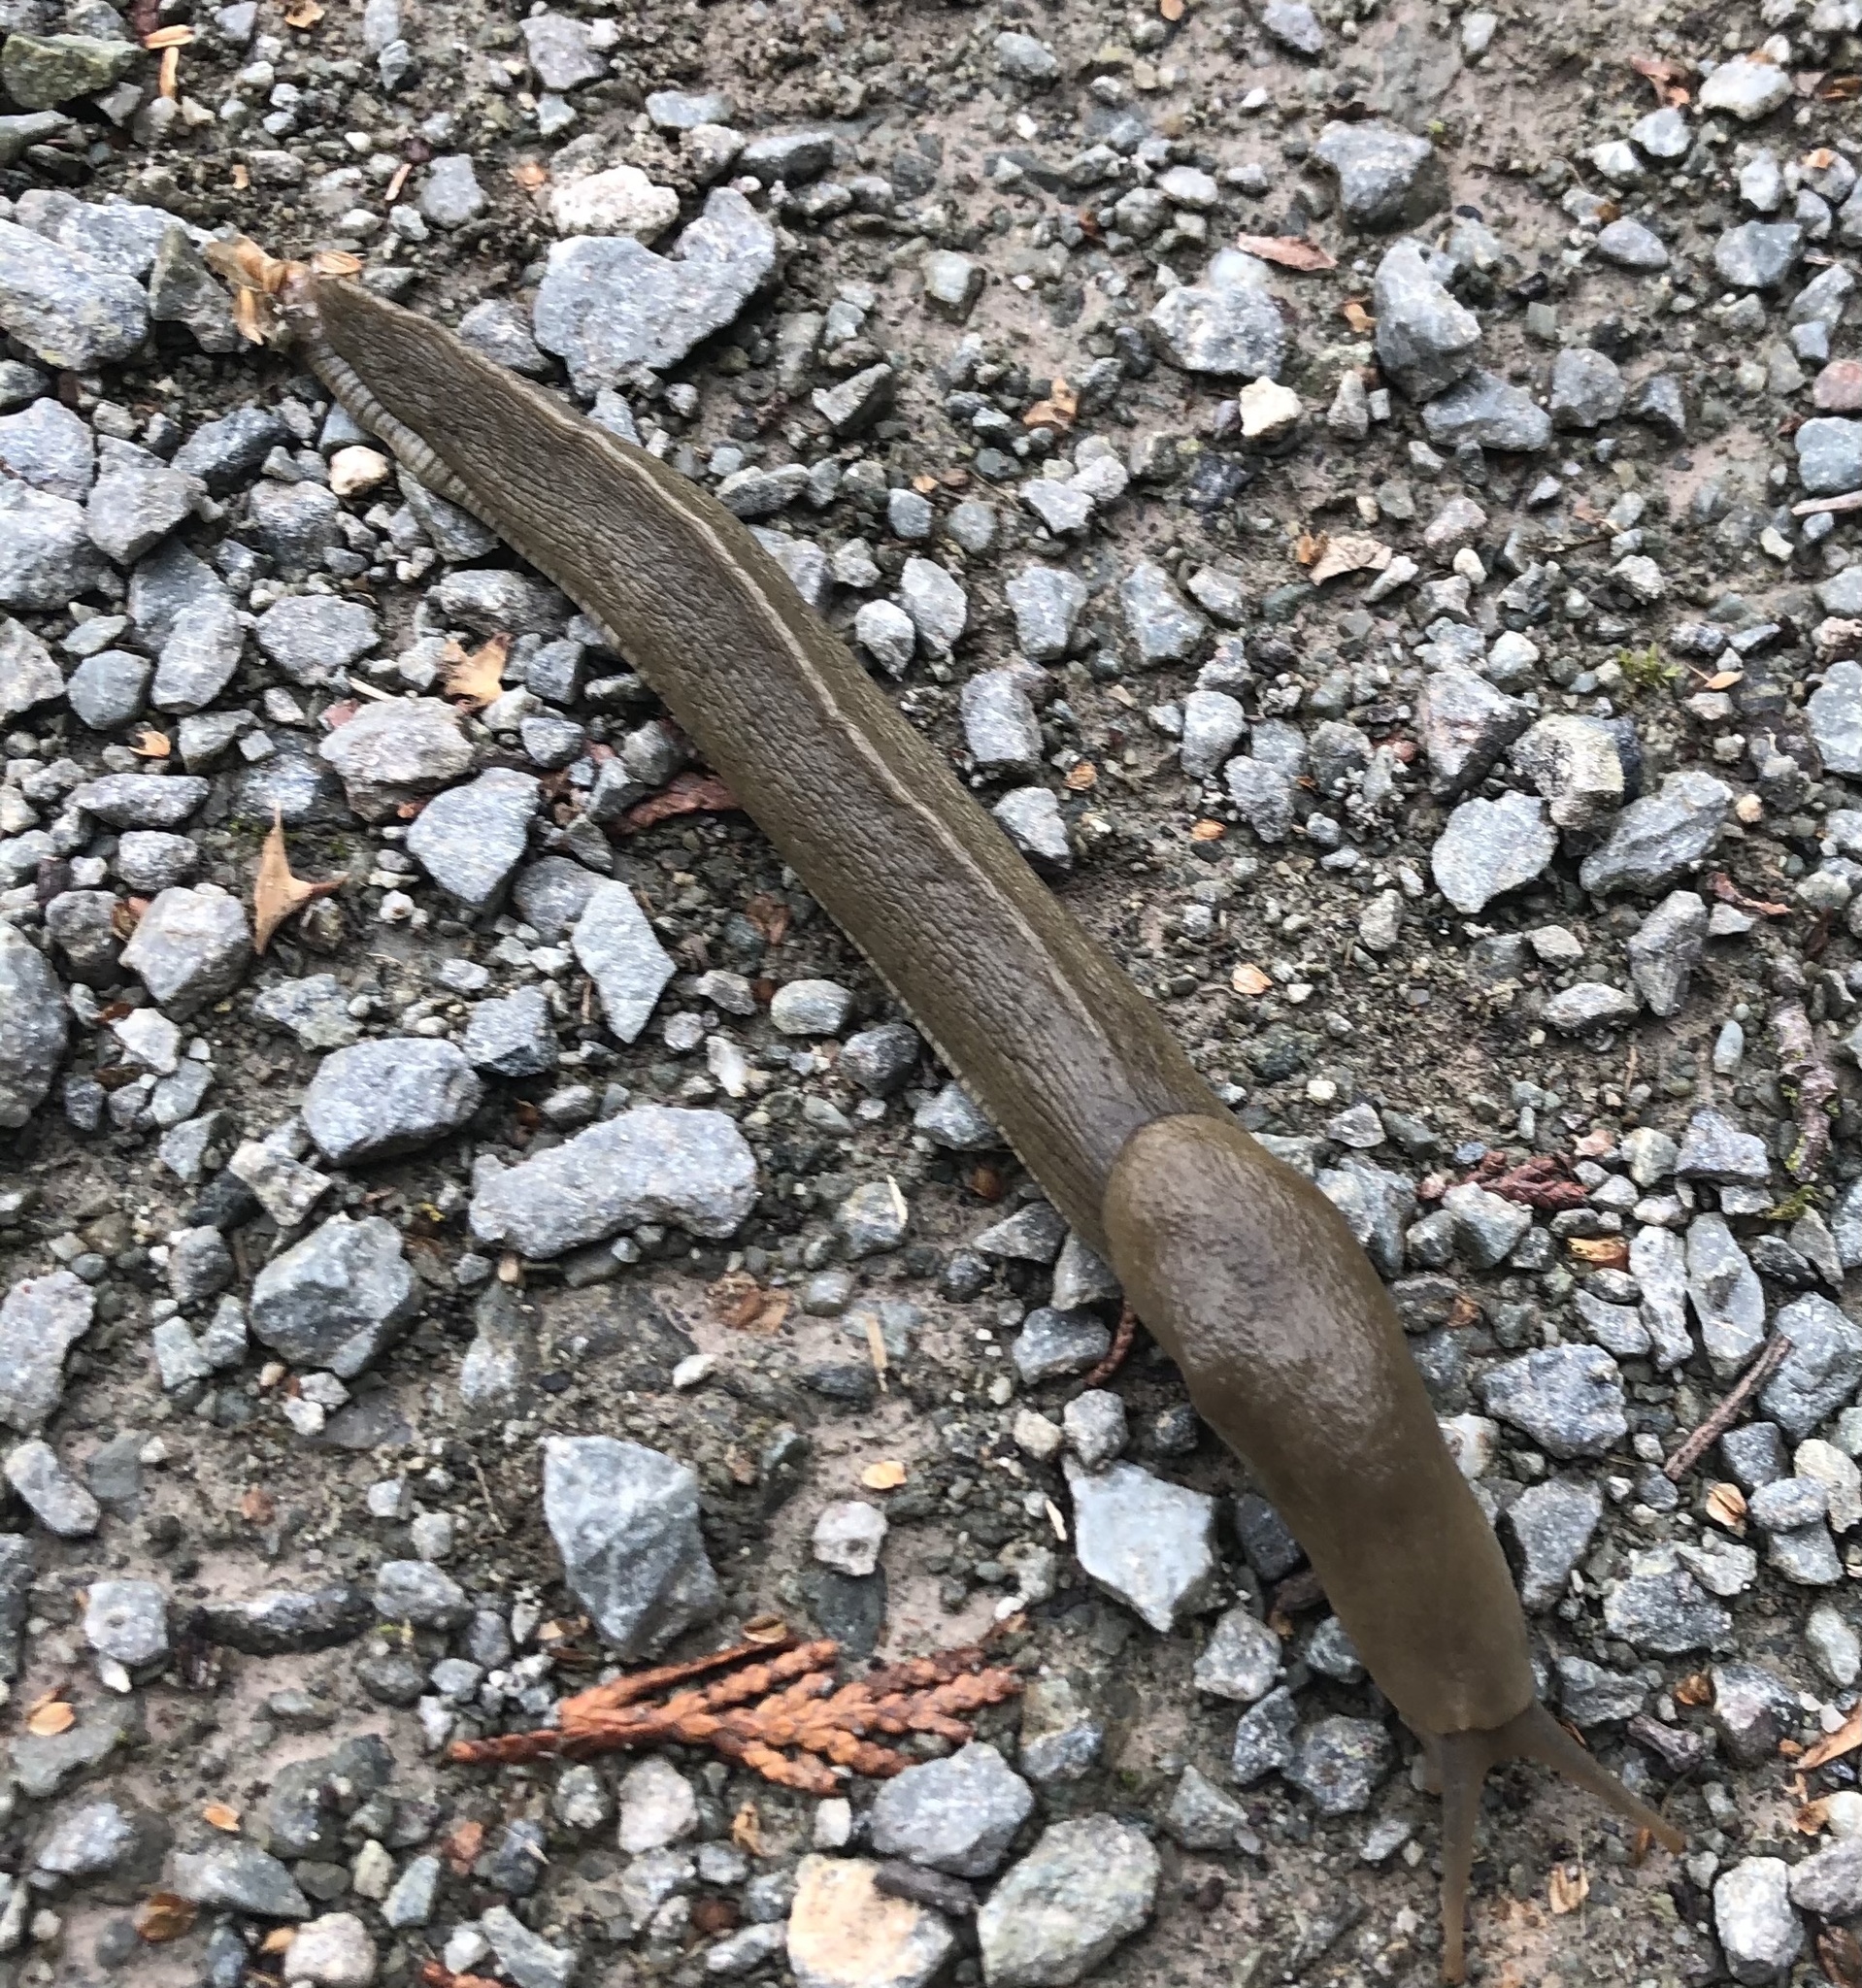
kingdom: Animalia
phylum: Mollusca
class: Gastropoda
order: Stylommatophora
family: Ariolimacidae
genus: Ariolimax
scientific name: Ariolimax columbianus
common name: Pacific banana slug
